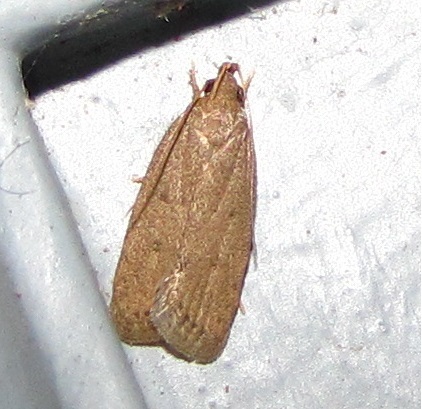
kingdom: Animalia
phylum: Arthropoda
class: Insecta
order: Lepidoptera
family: Autostichidae
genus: Autosticha
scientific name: Autosticha kyotensis
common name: Kyoto moth
